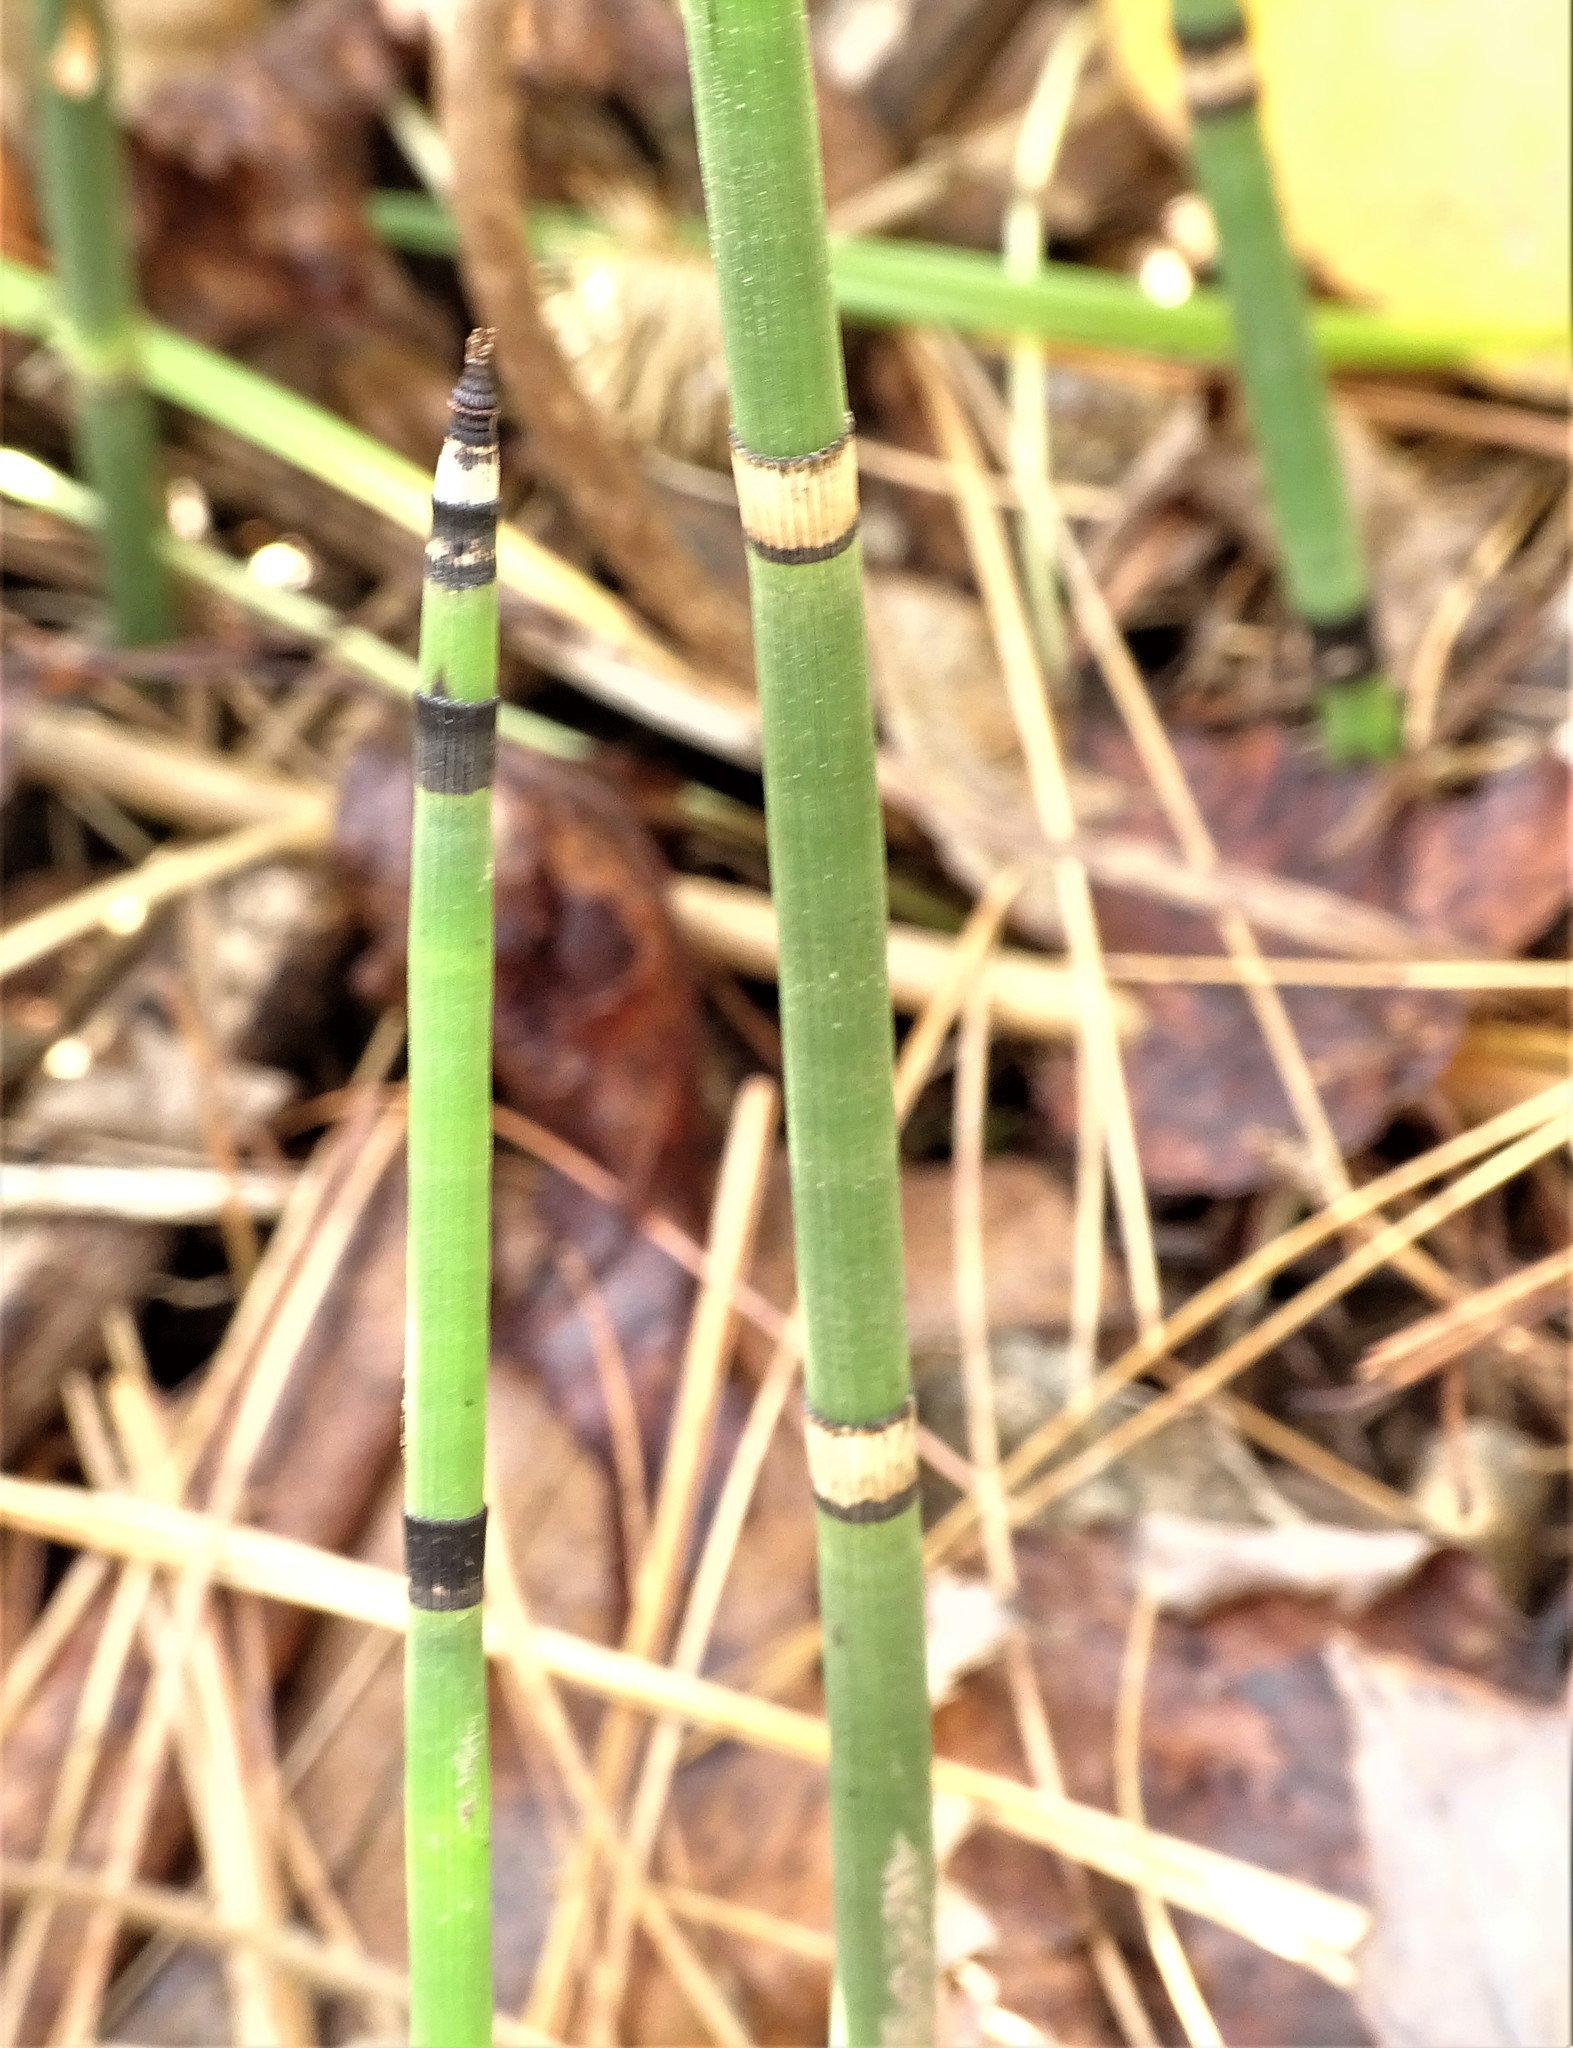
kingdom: Plantae
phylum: Tracheophyta
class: Polypodiopsida
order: Equisetales
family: Equisetaceae
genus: Equisetum
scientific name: Equisetum praealtum
